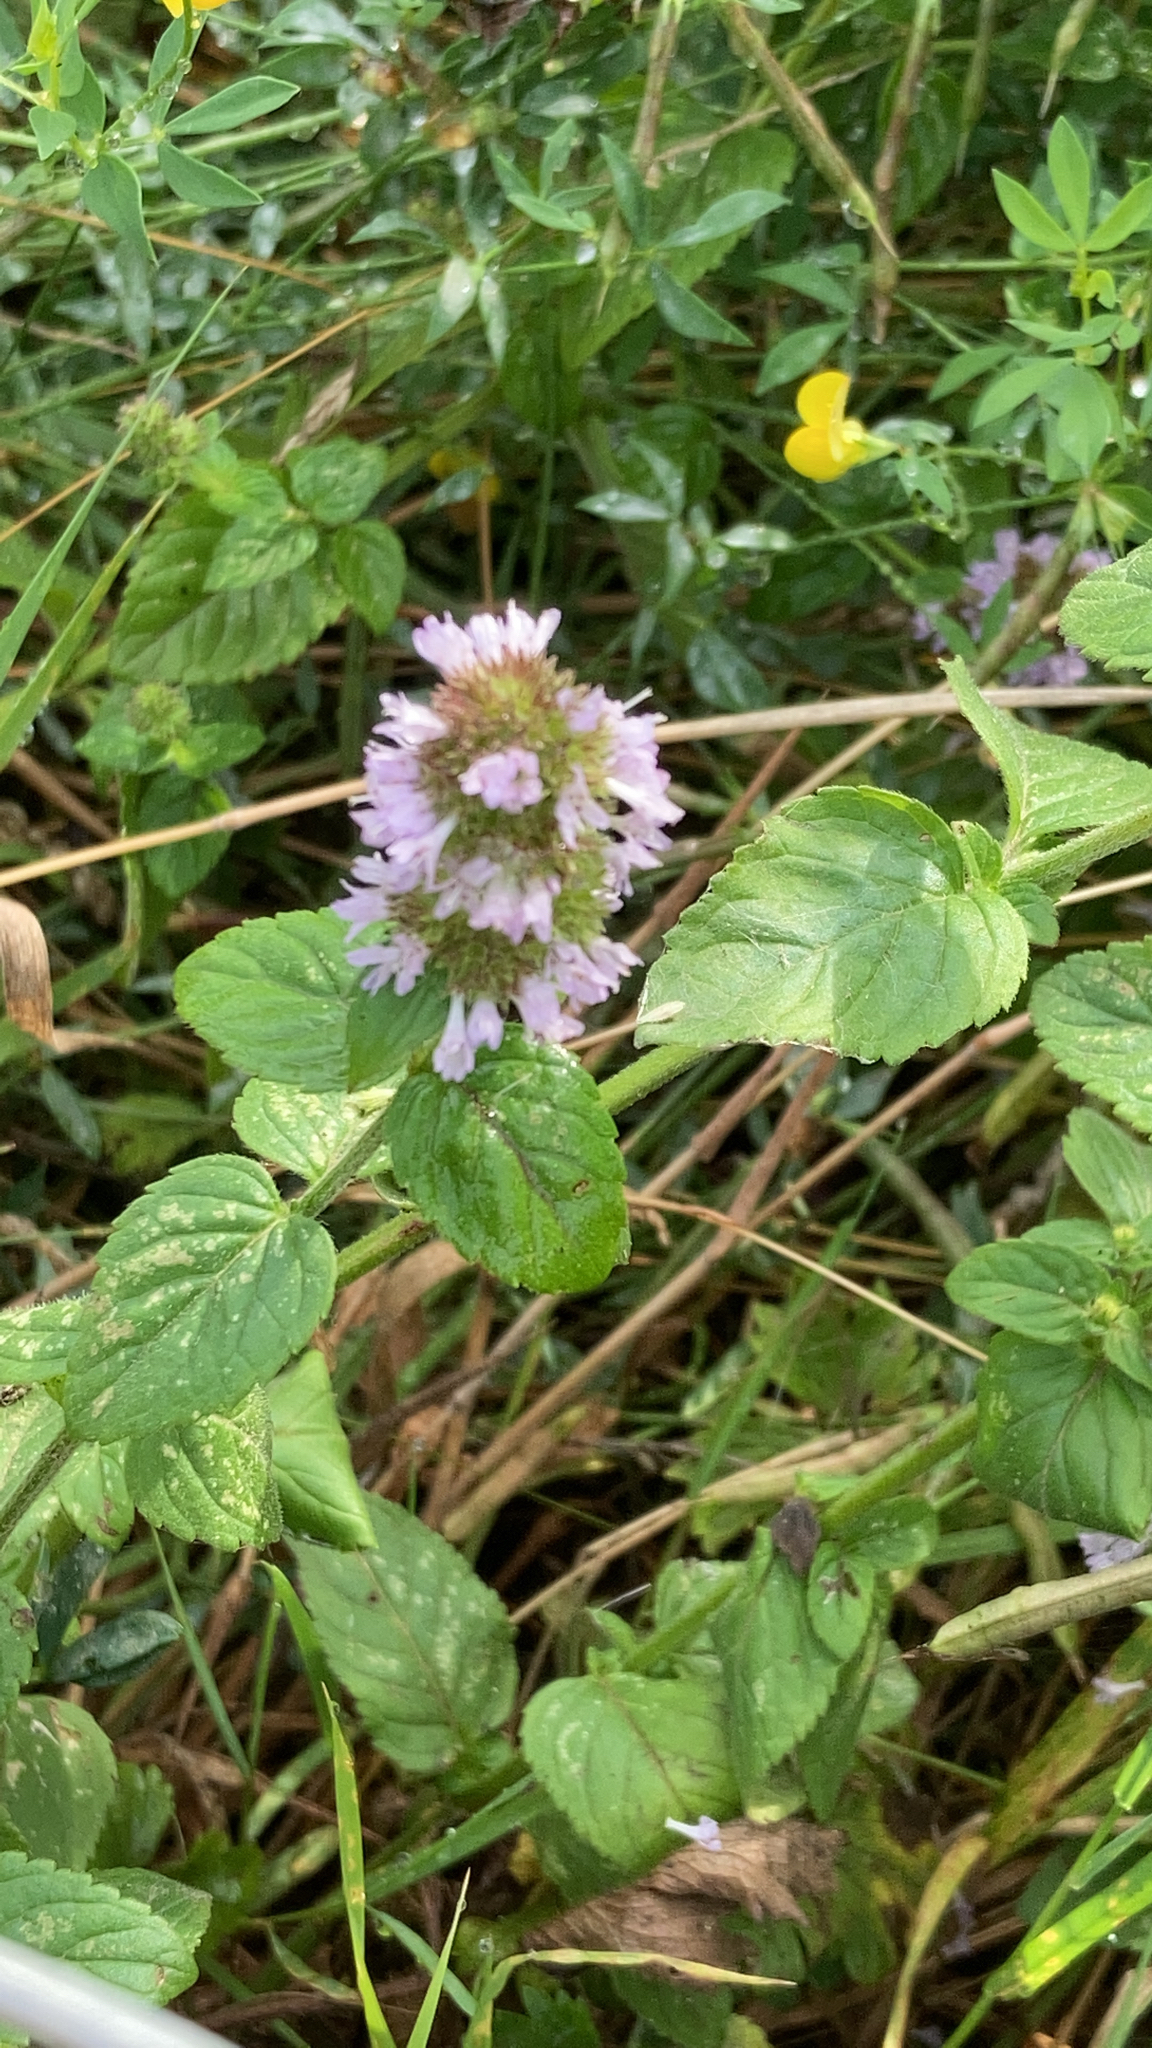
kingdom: Plantae
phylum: Tracheophyta
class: Magnoliopsida
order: Lamiales
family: Lamiaceae
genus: Mentha
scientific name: Mentha aquatica
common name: Water mint
